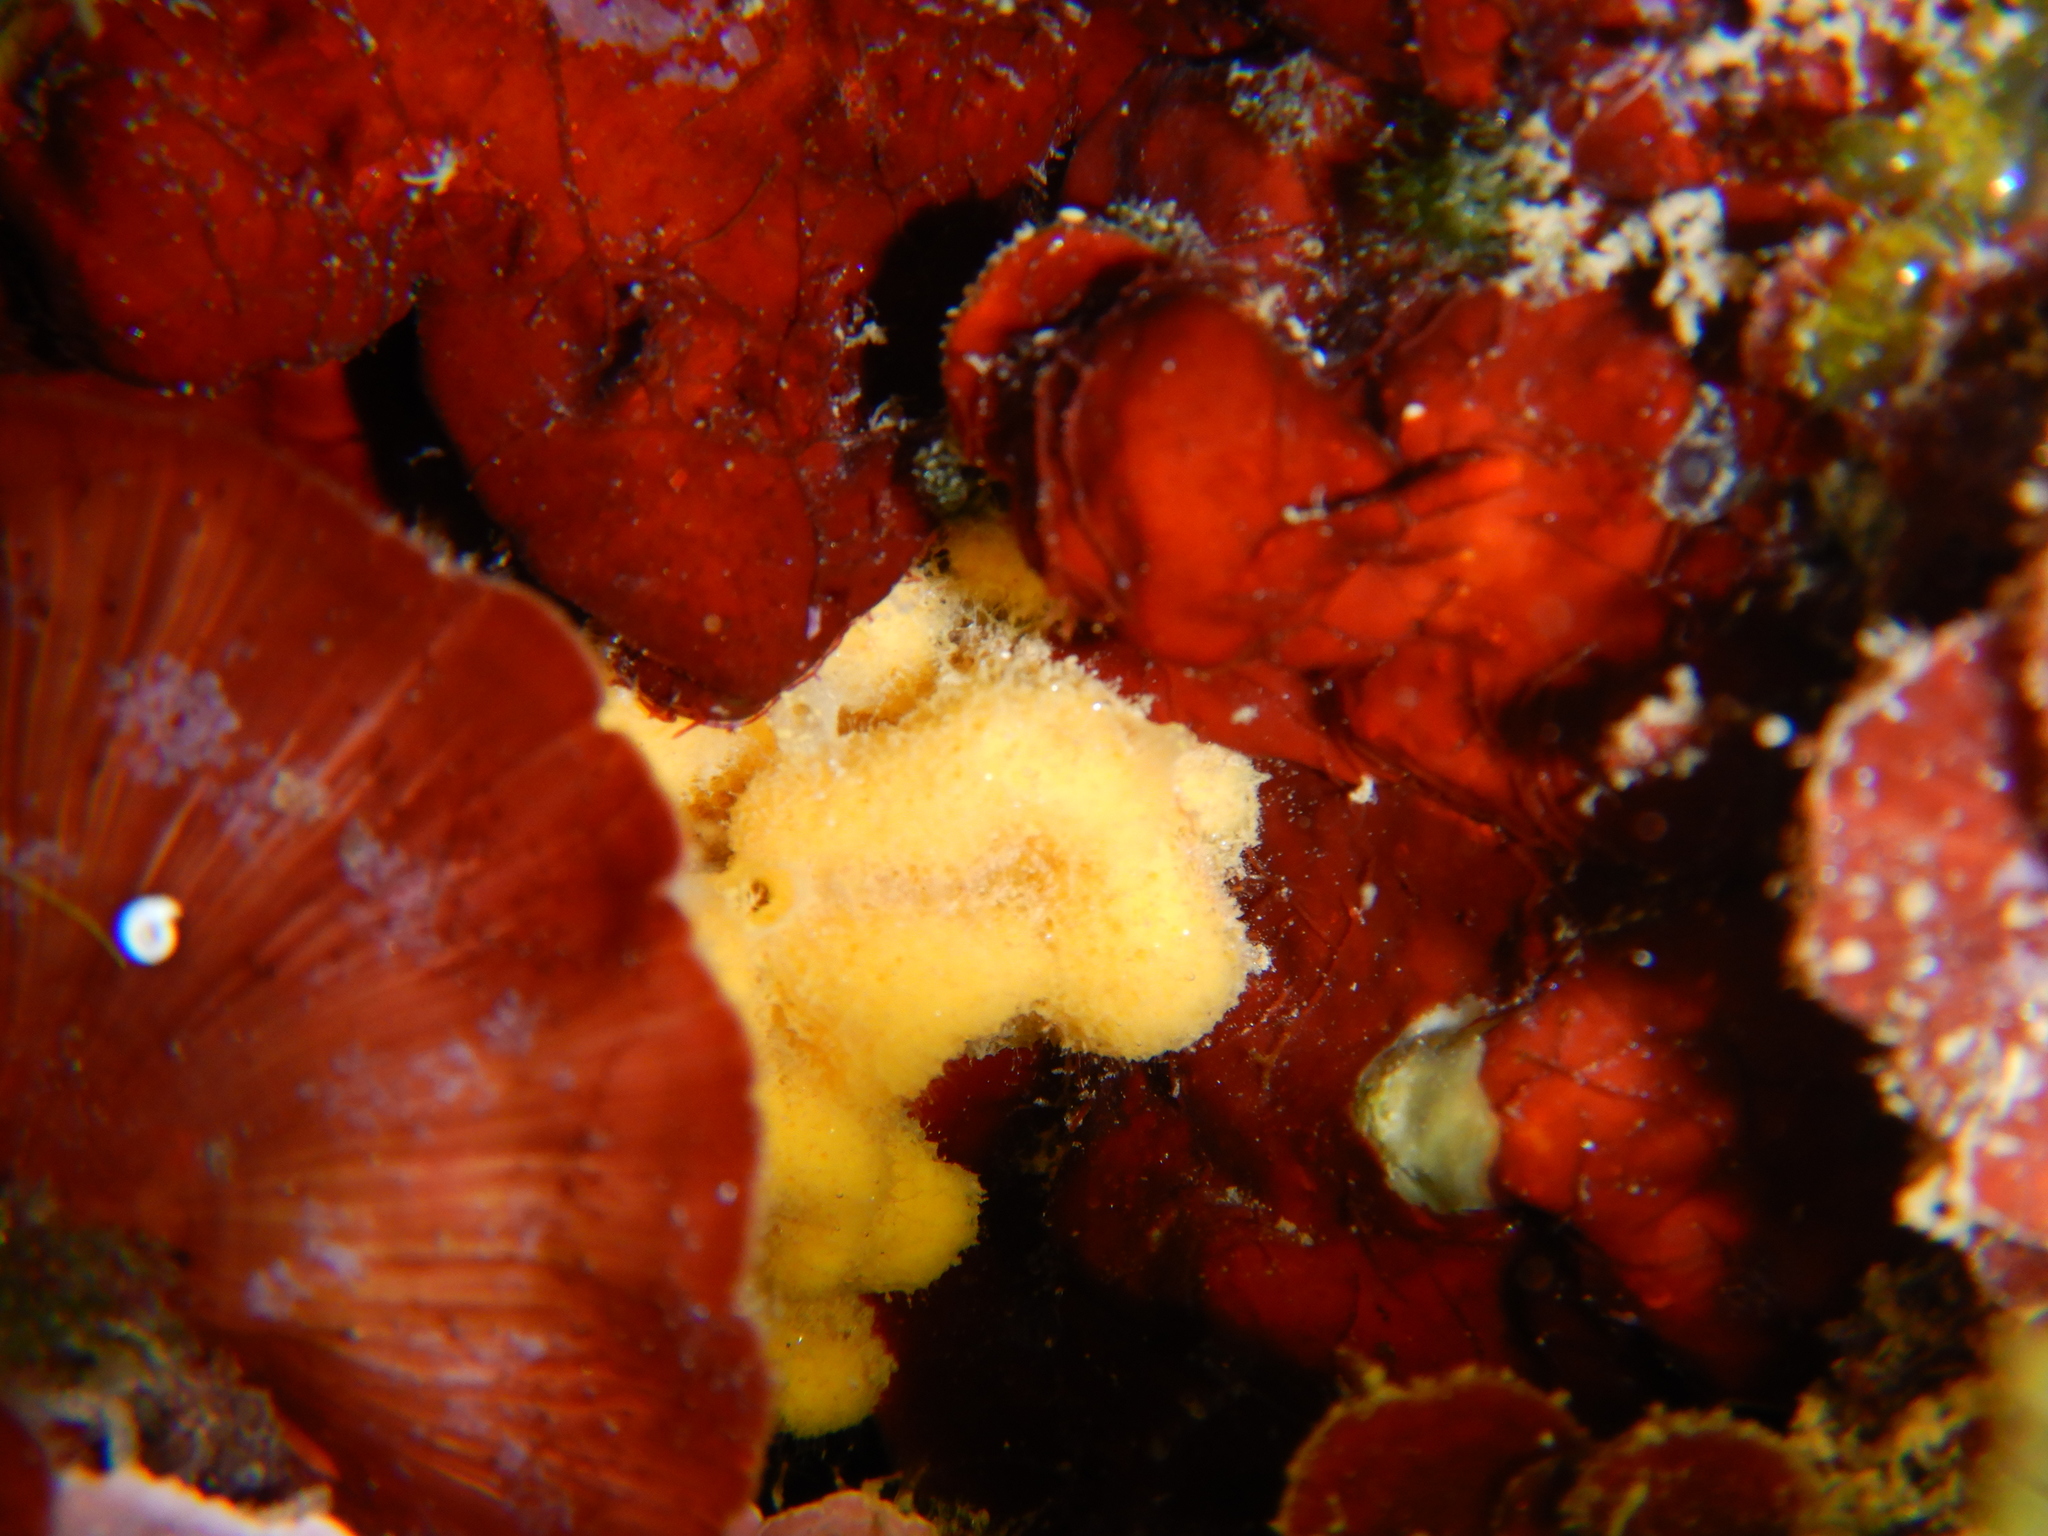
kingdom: Animalia
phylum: Porifera
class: Demospongiae
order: Axinellida
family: Axinellidae
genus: Axinella
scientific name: Axinella damicornis
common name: Crumpled duster sponge
